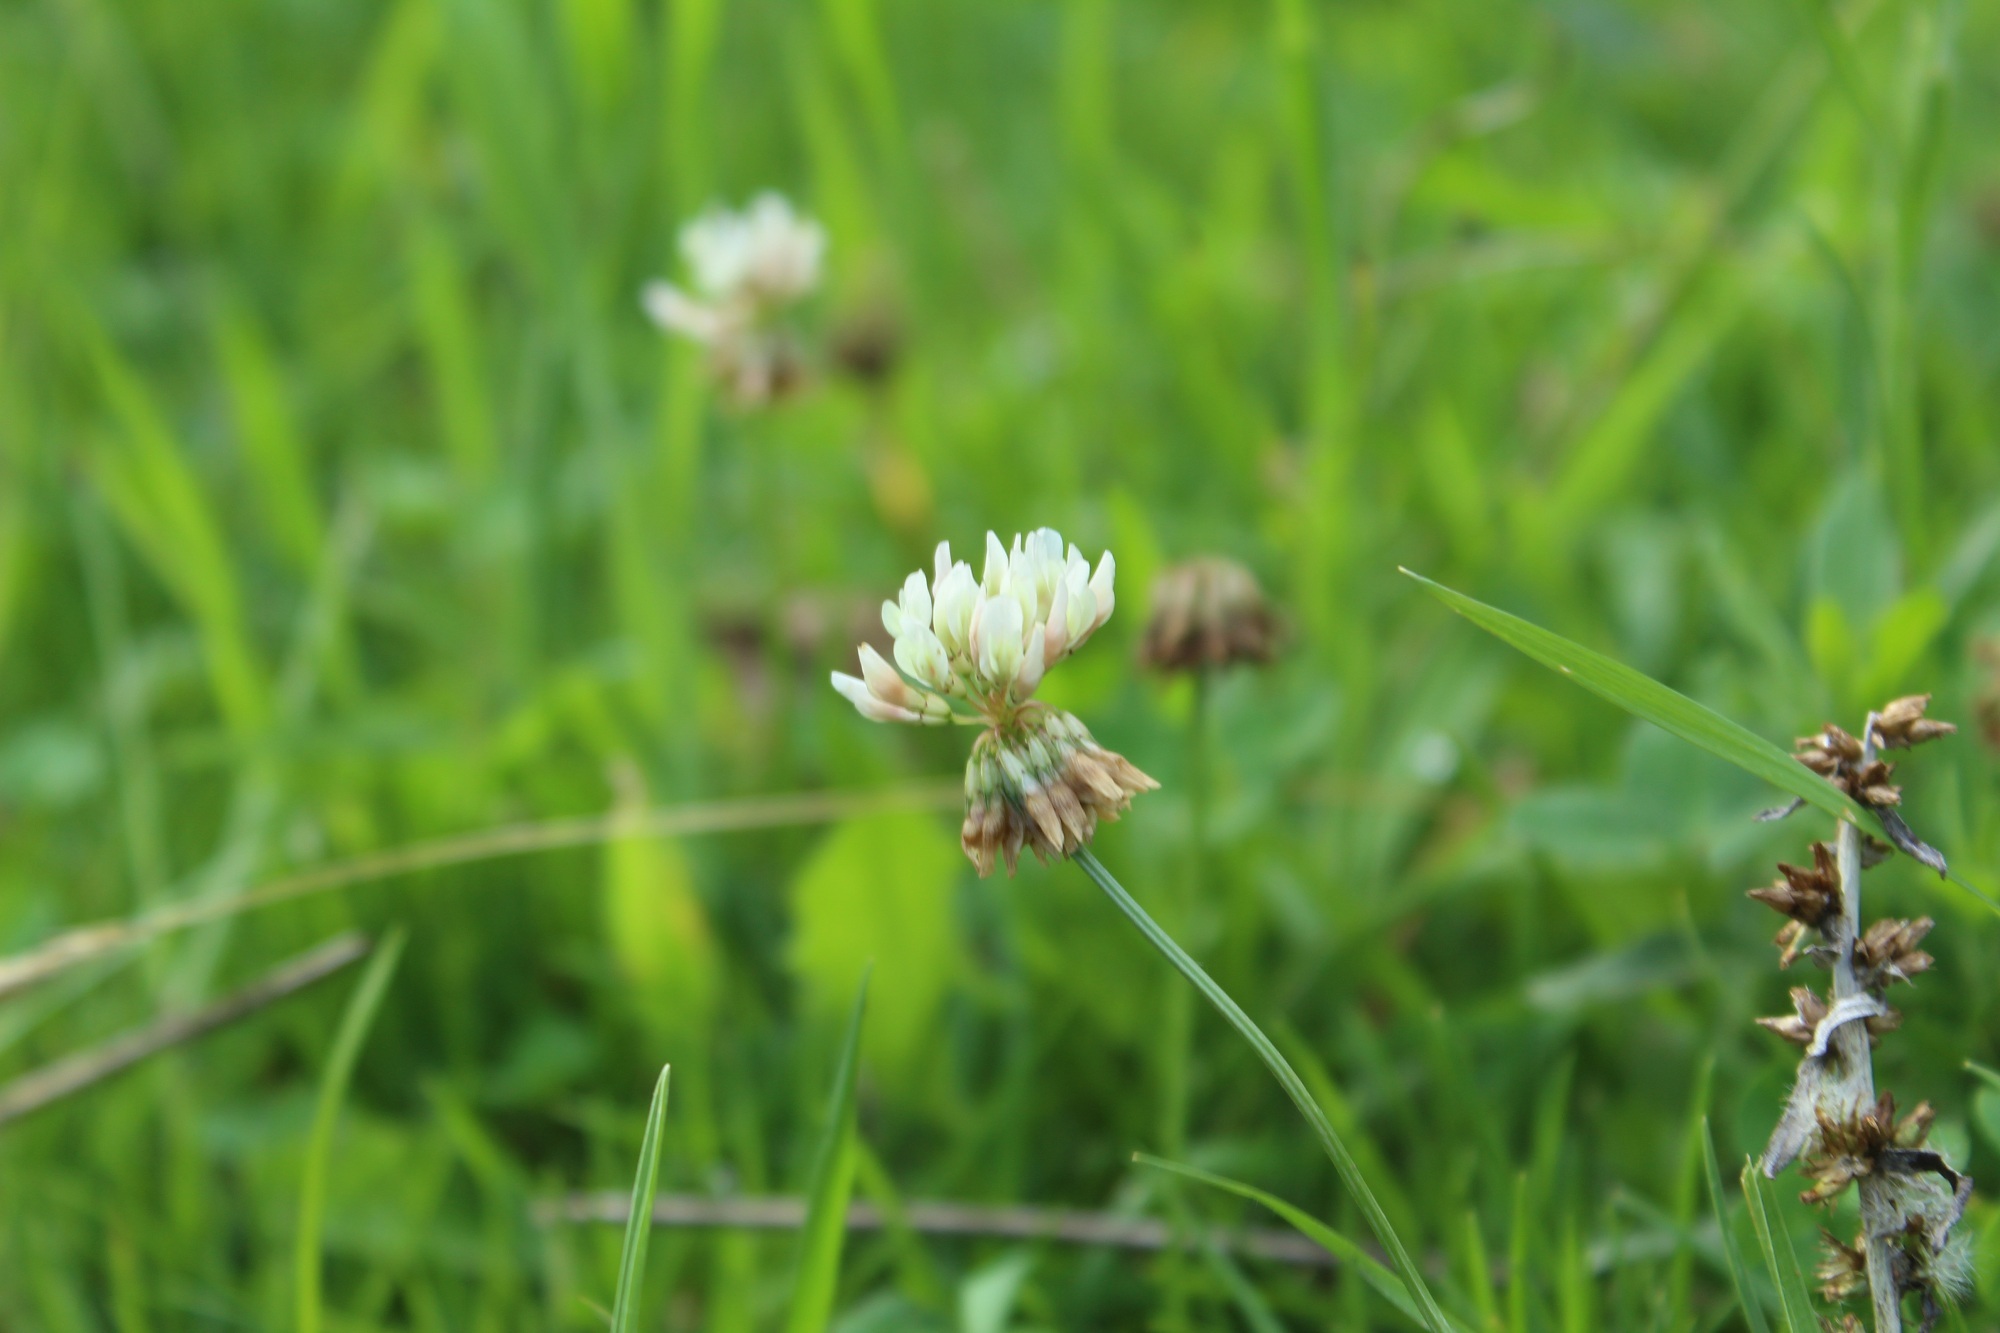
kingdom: Plantae
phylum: Tracheophyta
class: Magnoliopsida
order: Fabales
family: Fabaceae
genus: Trifolium
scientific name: Trifolium repens
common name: White clover
